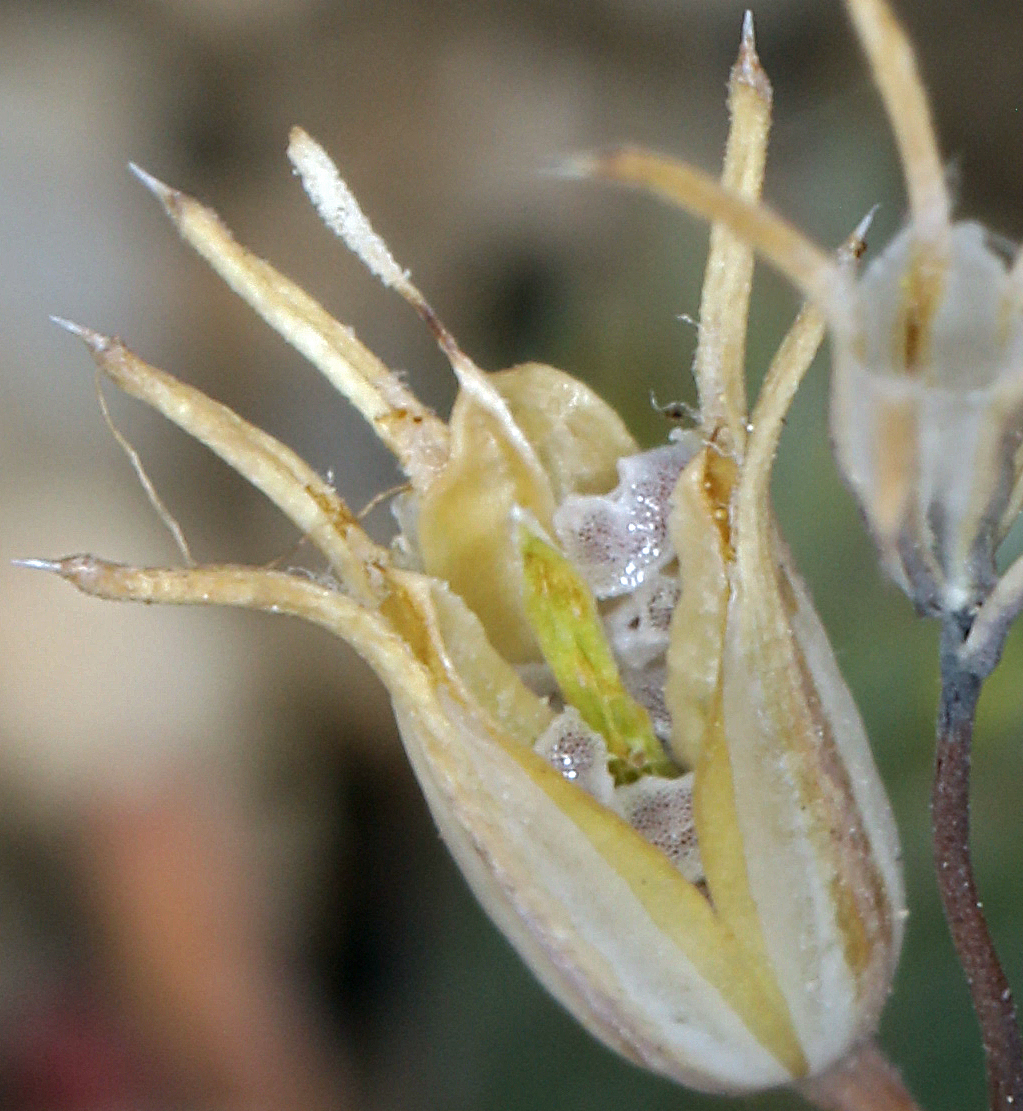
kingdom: Plantae
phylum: Tracheophyta
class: Magnoliopsida
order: Ericales
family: Polemoniaceae
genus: Linanthus
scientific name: Linanthus dichotomus
